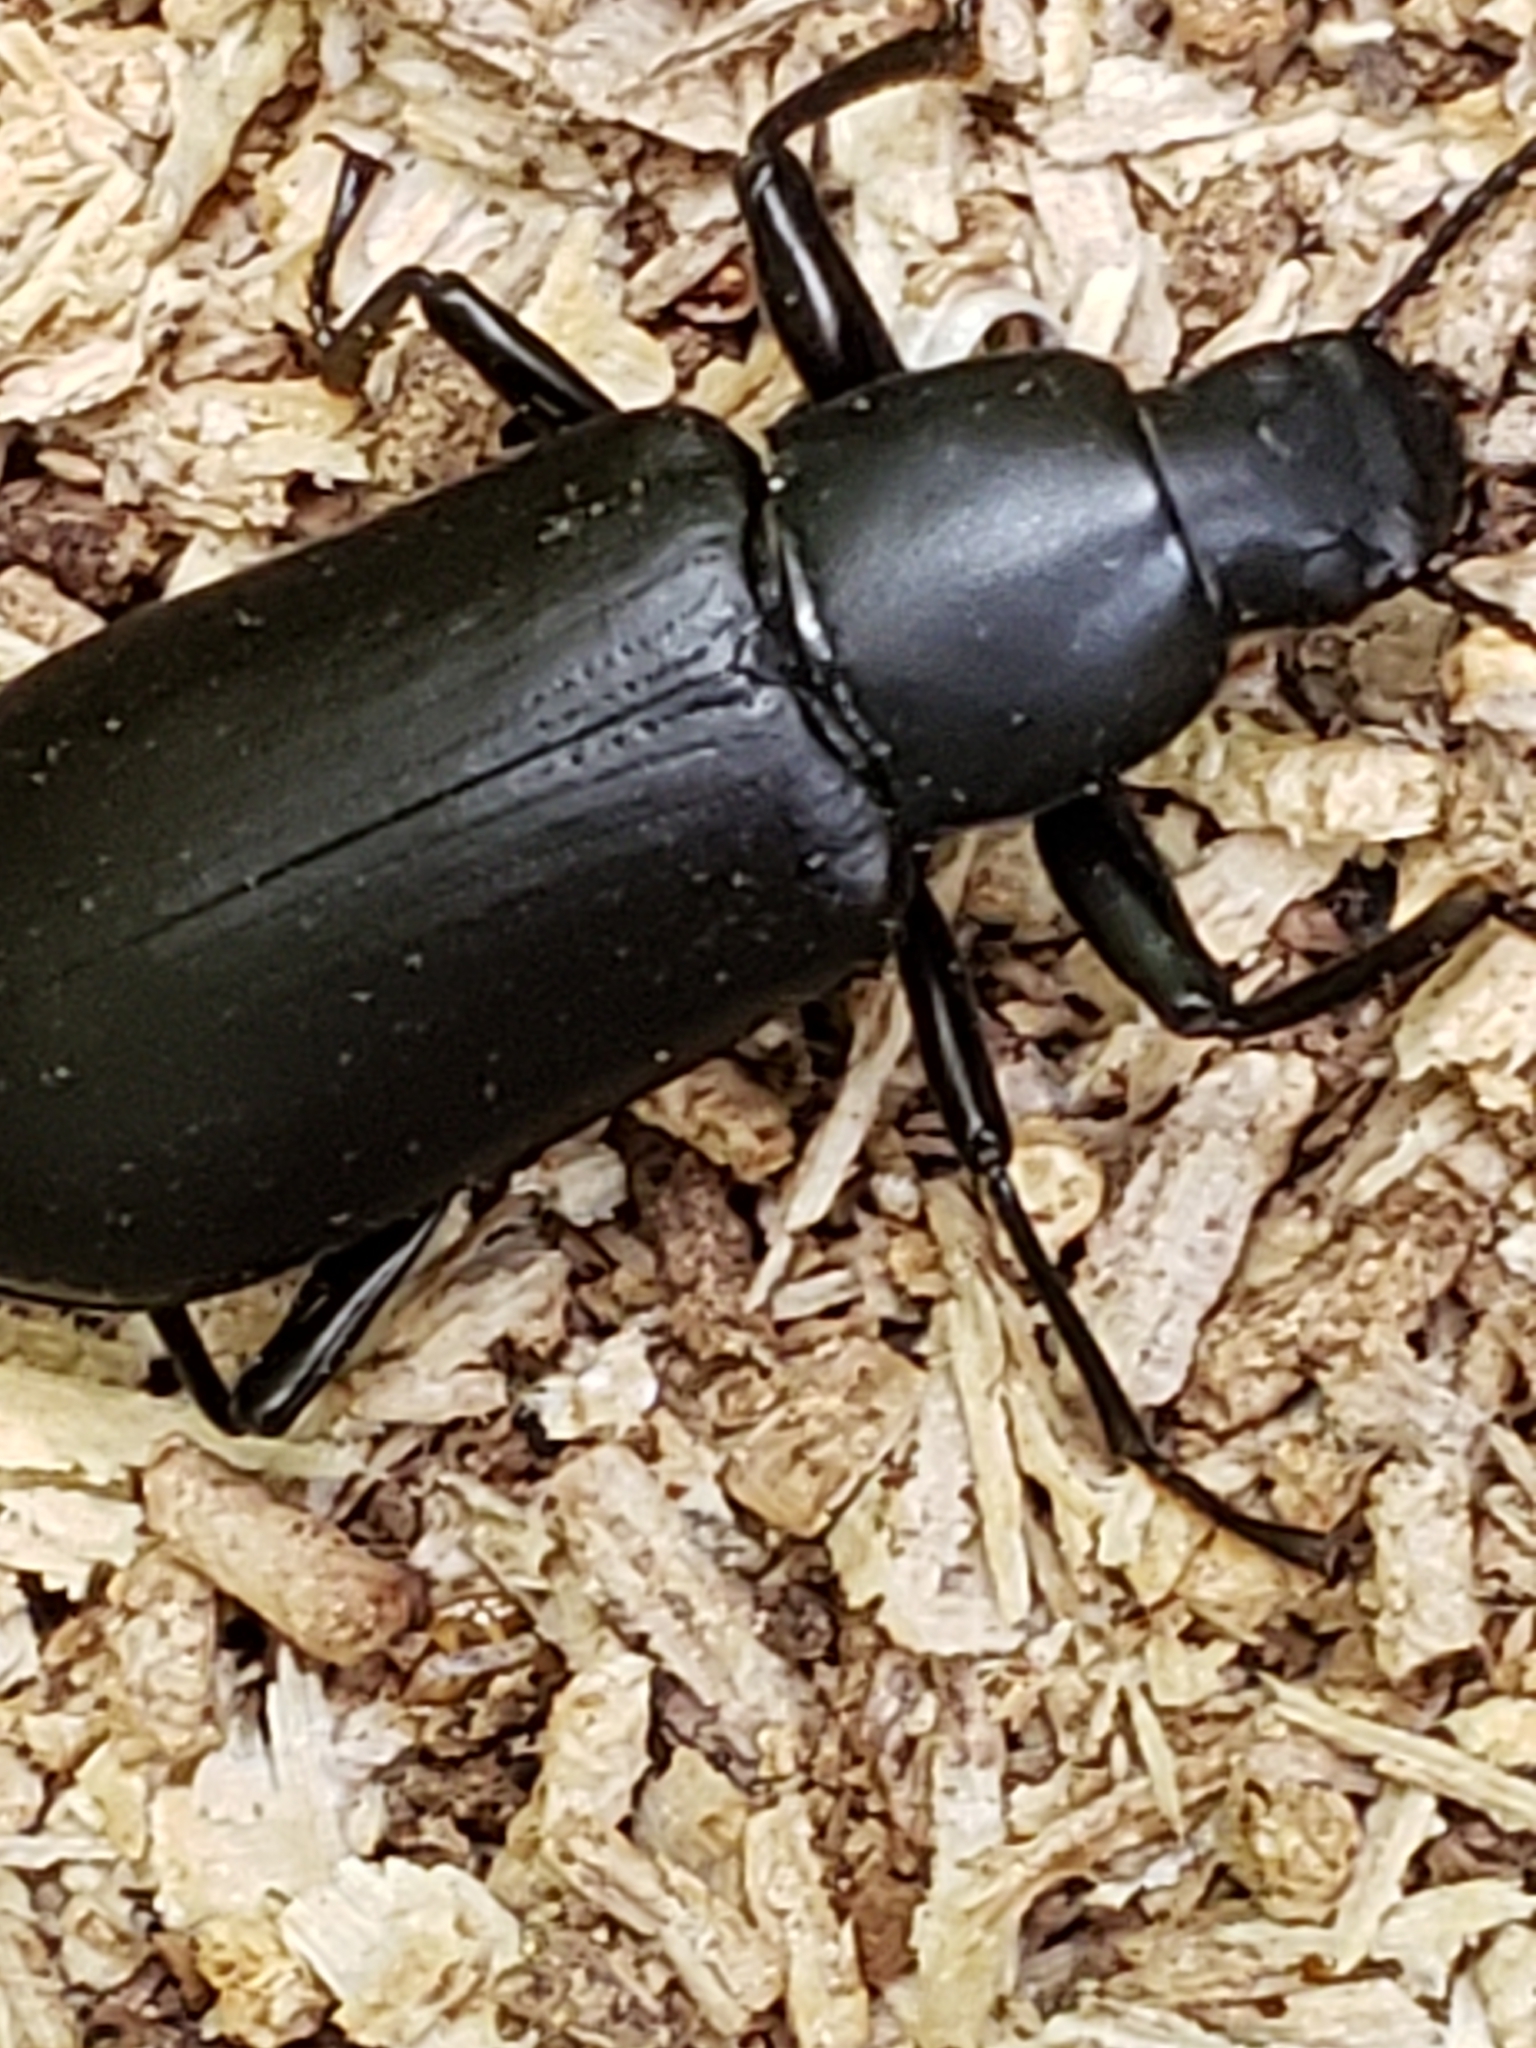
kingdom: Animalia
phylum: Arthropoda
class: Insecta
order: Coleoptera
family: Tenebrionidae
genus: Alobates
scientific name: Alobates
